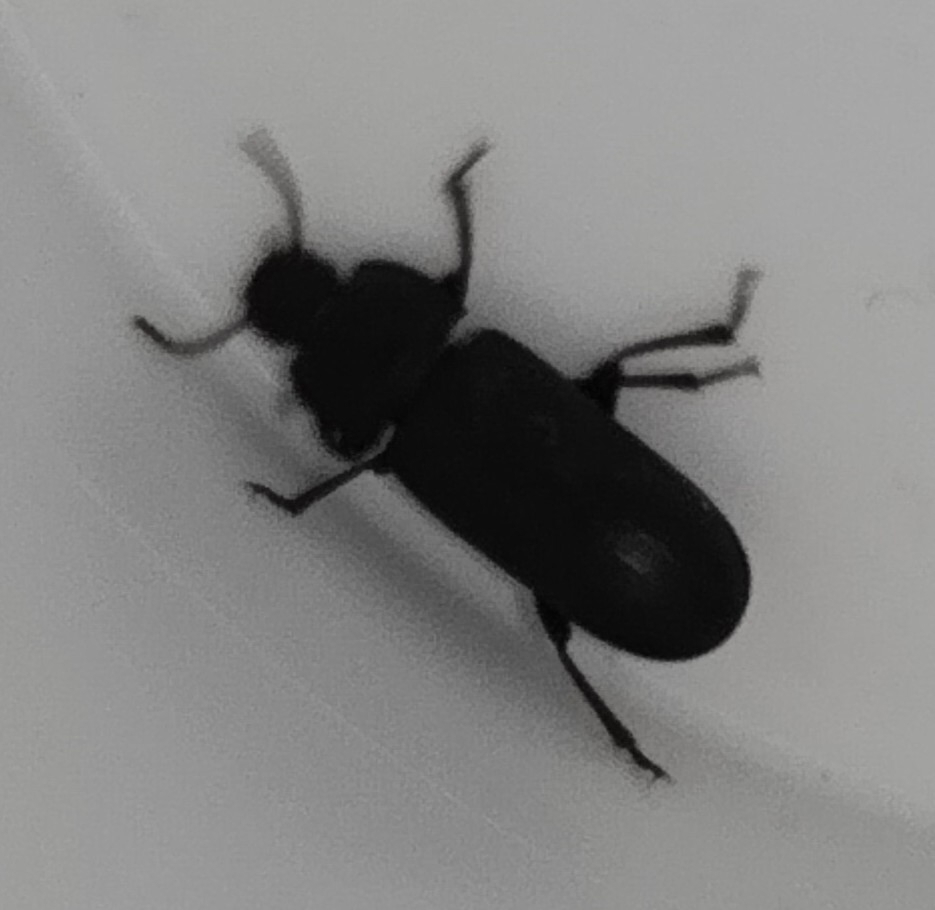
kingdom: Animalia
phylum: Arthropoda
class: Insecta
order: Coleoptera
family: Tenebrionidae
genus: Tenebrio
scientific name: Tenebrio molitor
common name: Hardback beetle
